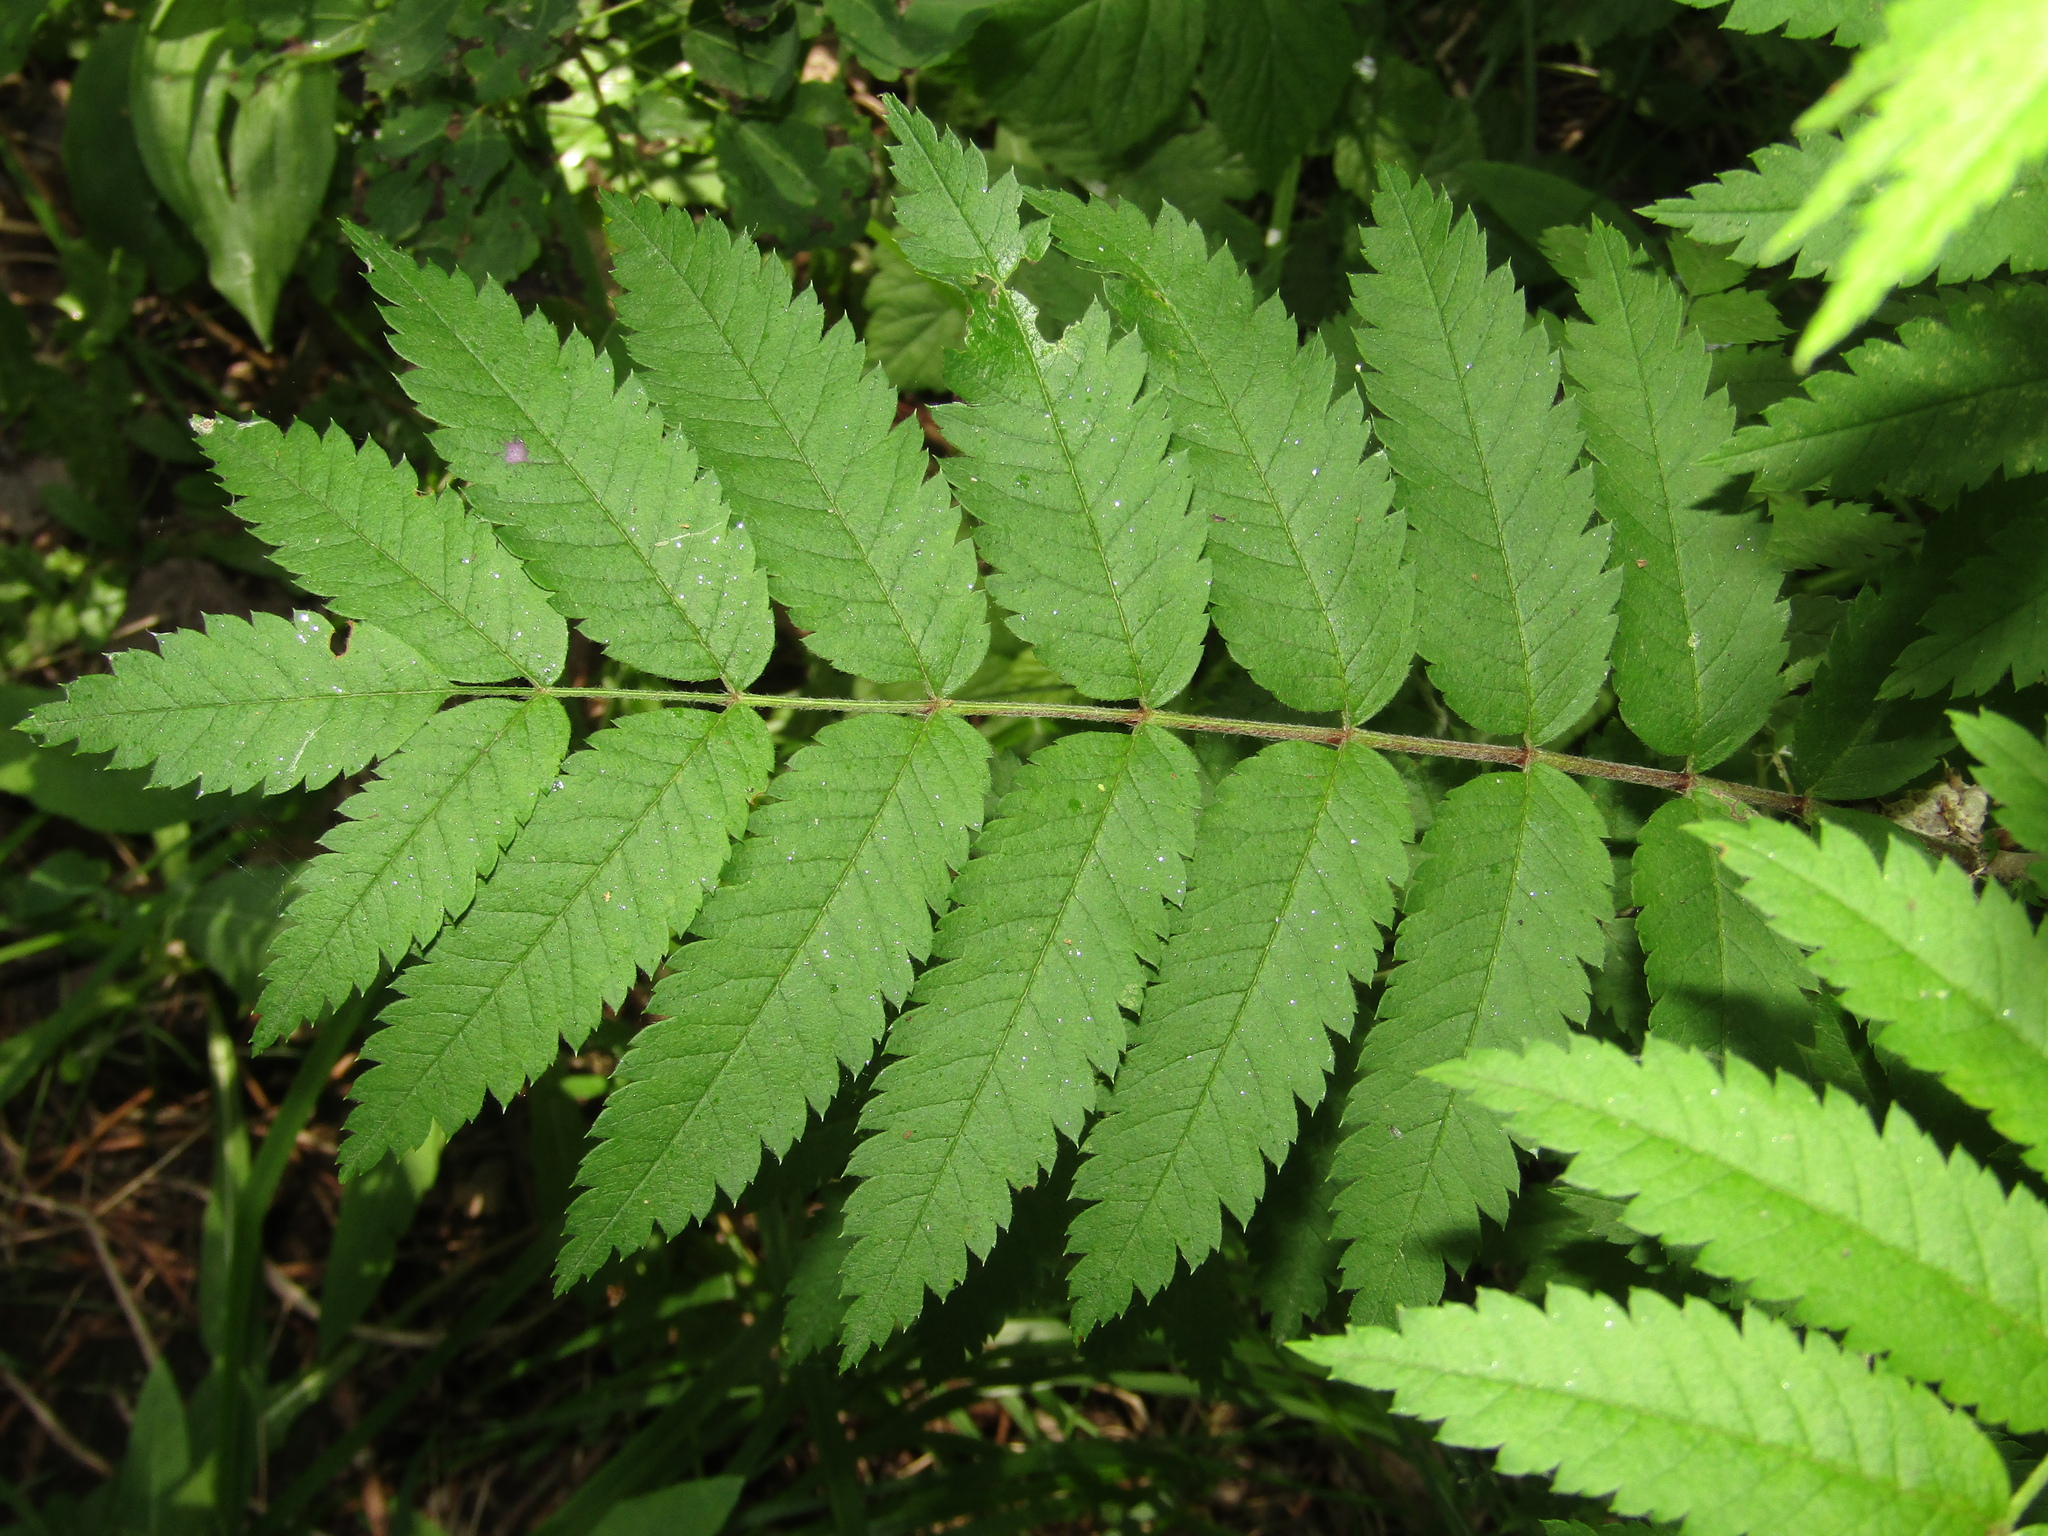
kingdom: Plantae
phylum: Tracheophyta
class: Magnoliopsida
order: Rosales
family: Rosaceae
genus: Sorbus
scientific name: Sorbus aucuparia
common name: Rowan
